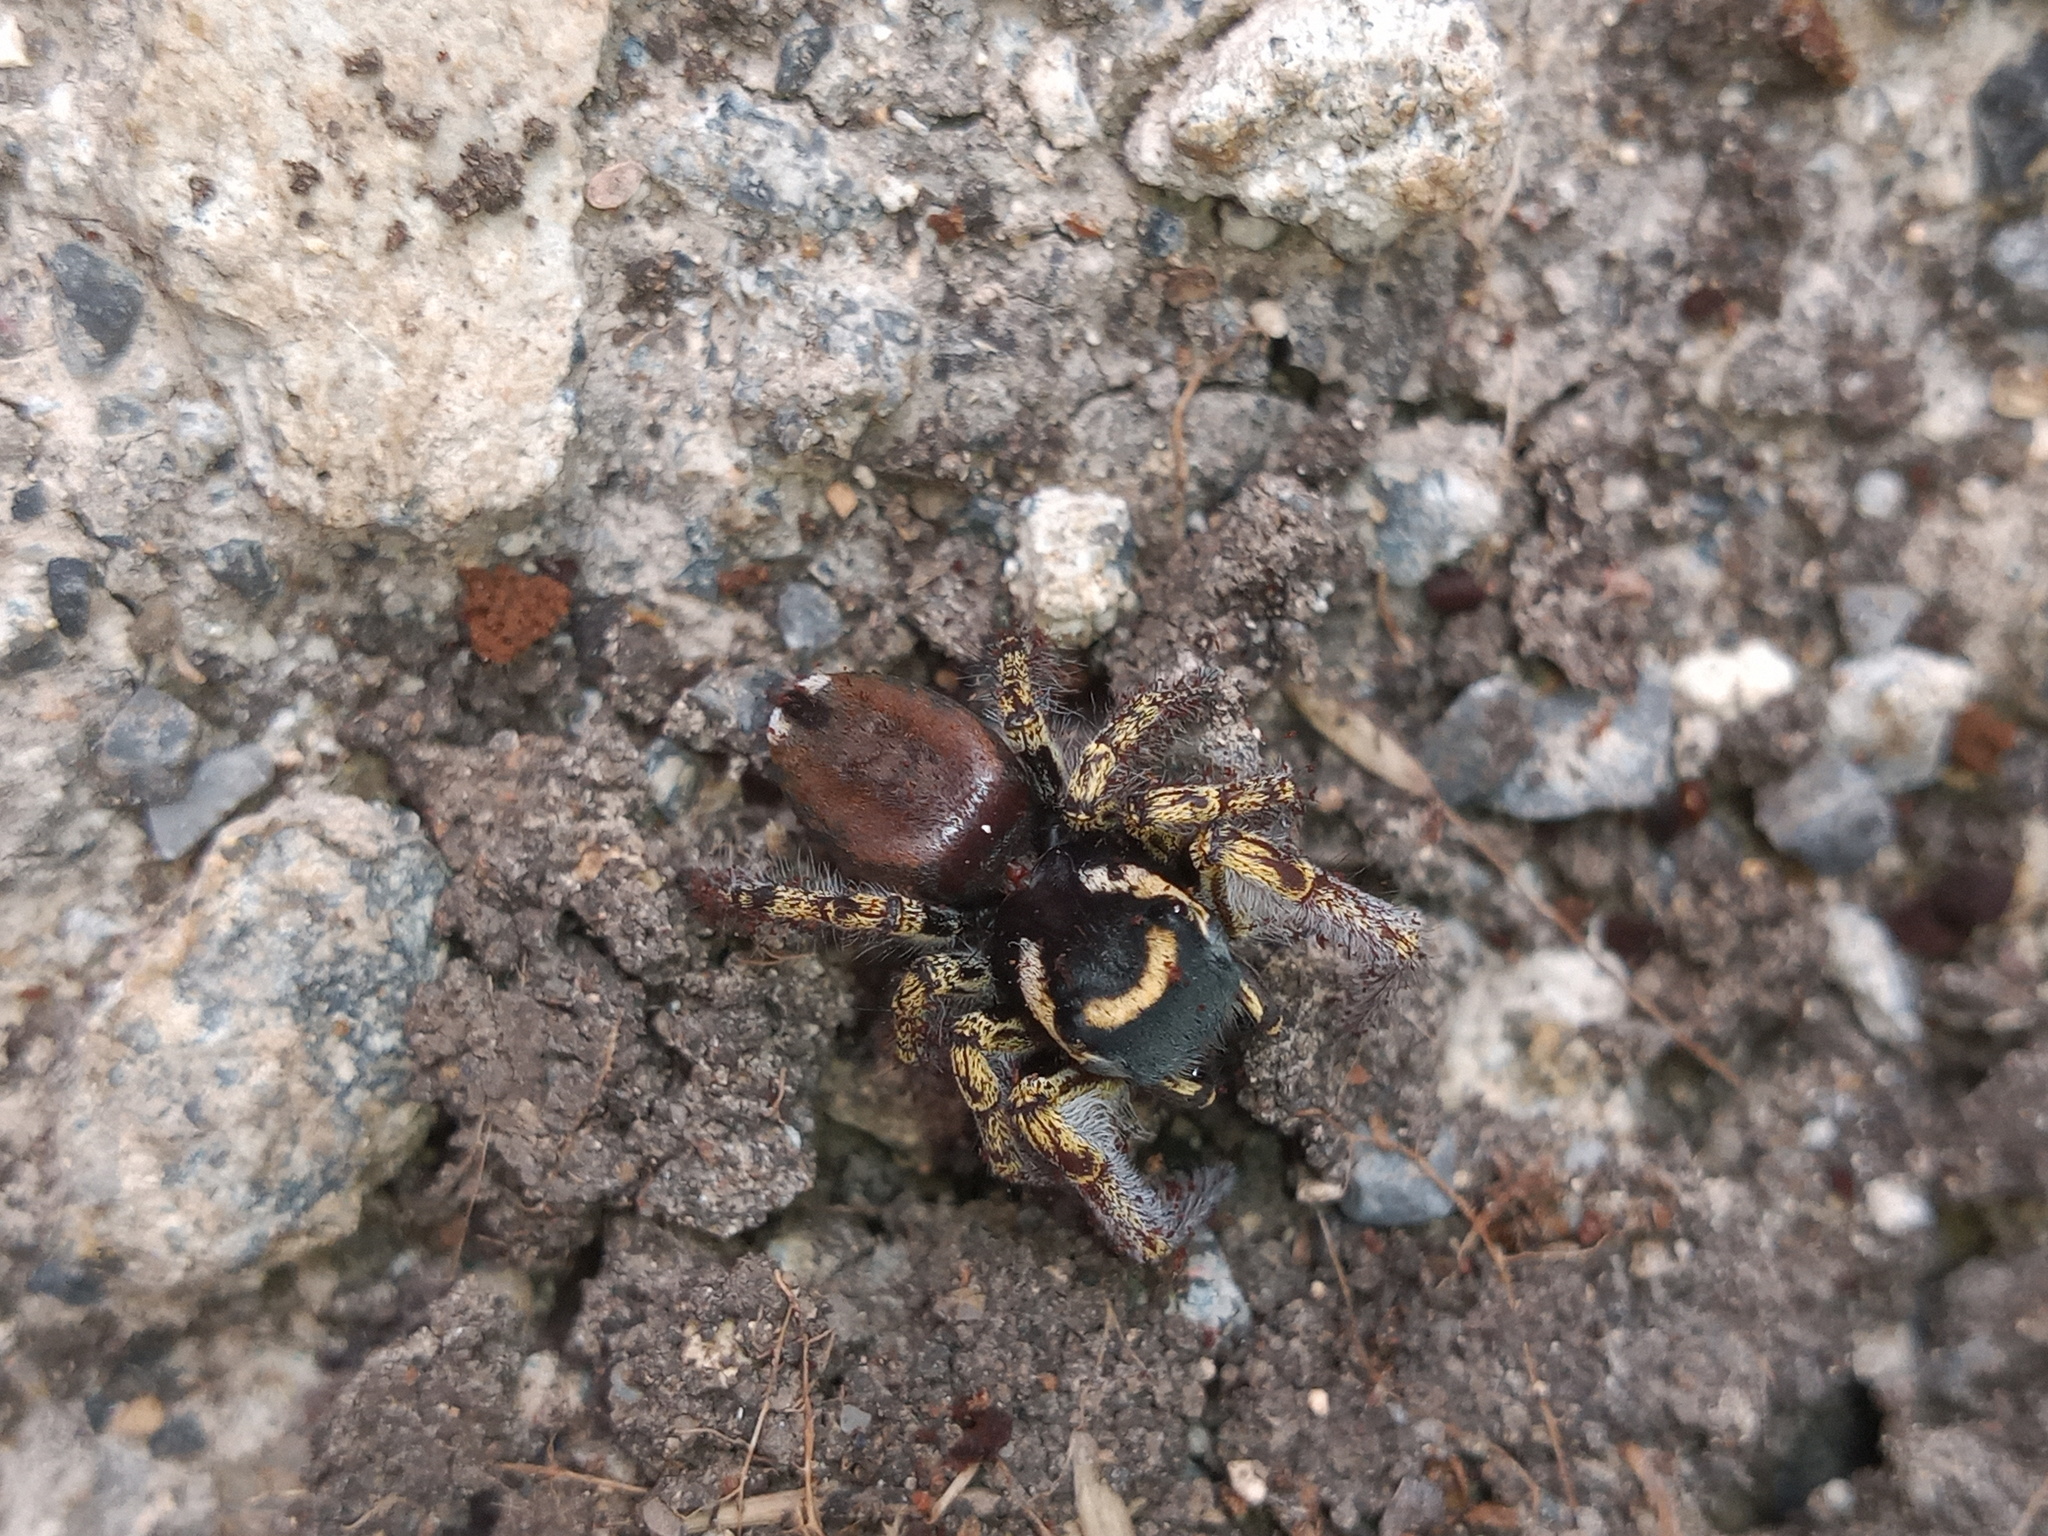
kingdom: Animalia
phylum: Arthropoda
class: Arachnida
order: Araneae
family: Salticidae
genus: Phidippus
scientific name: Phidippus arizonensis
